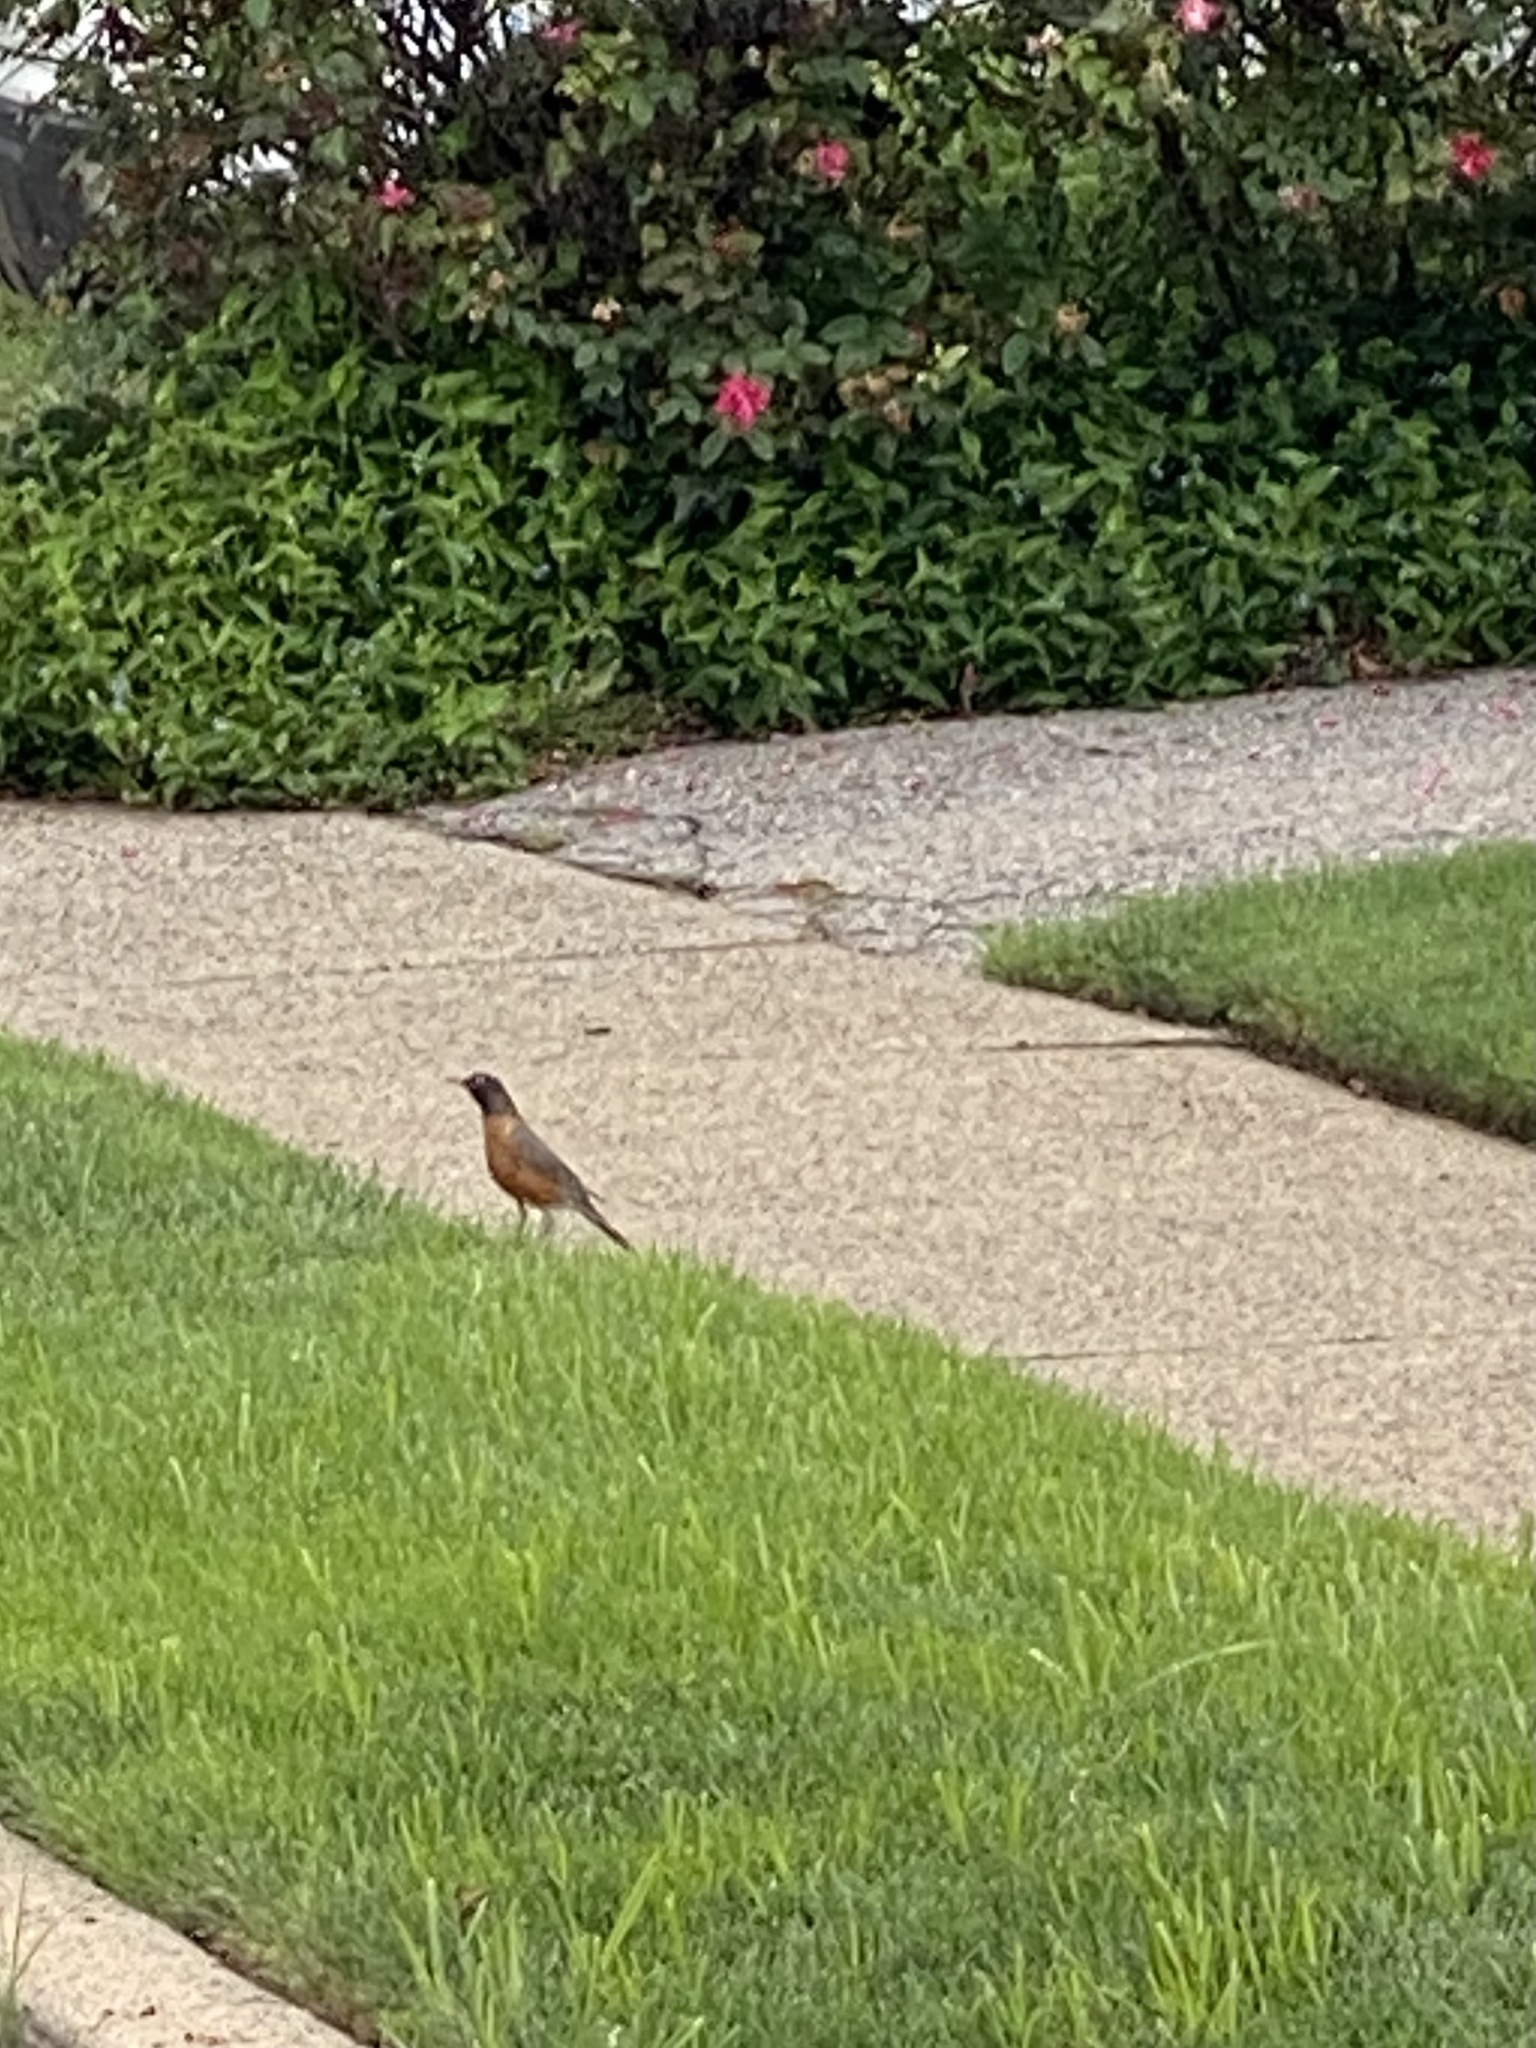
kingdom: Animalia
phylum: Chordata
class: Aves
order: Passeriformes
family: Turdidae
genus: Turdus
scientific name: Turdus migratorius
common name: American robin
